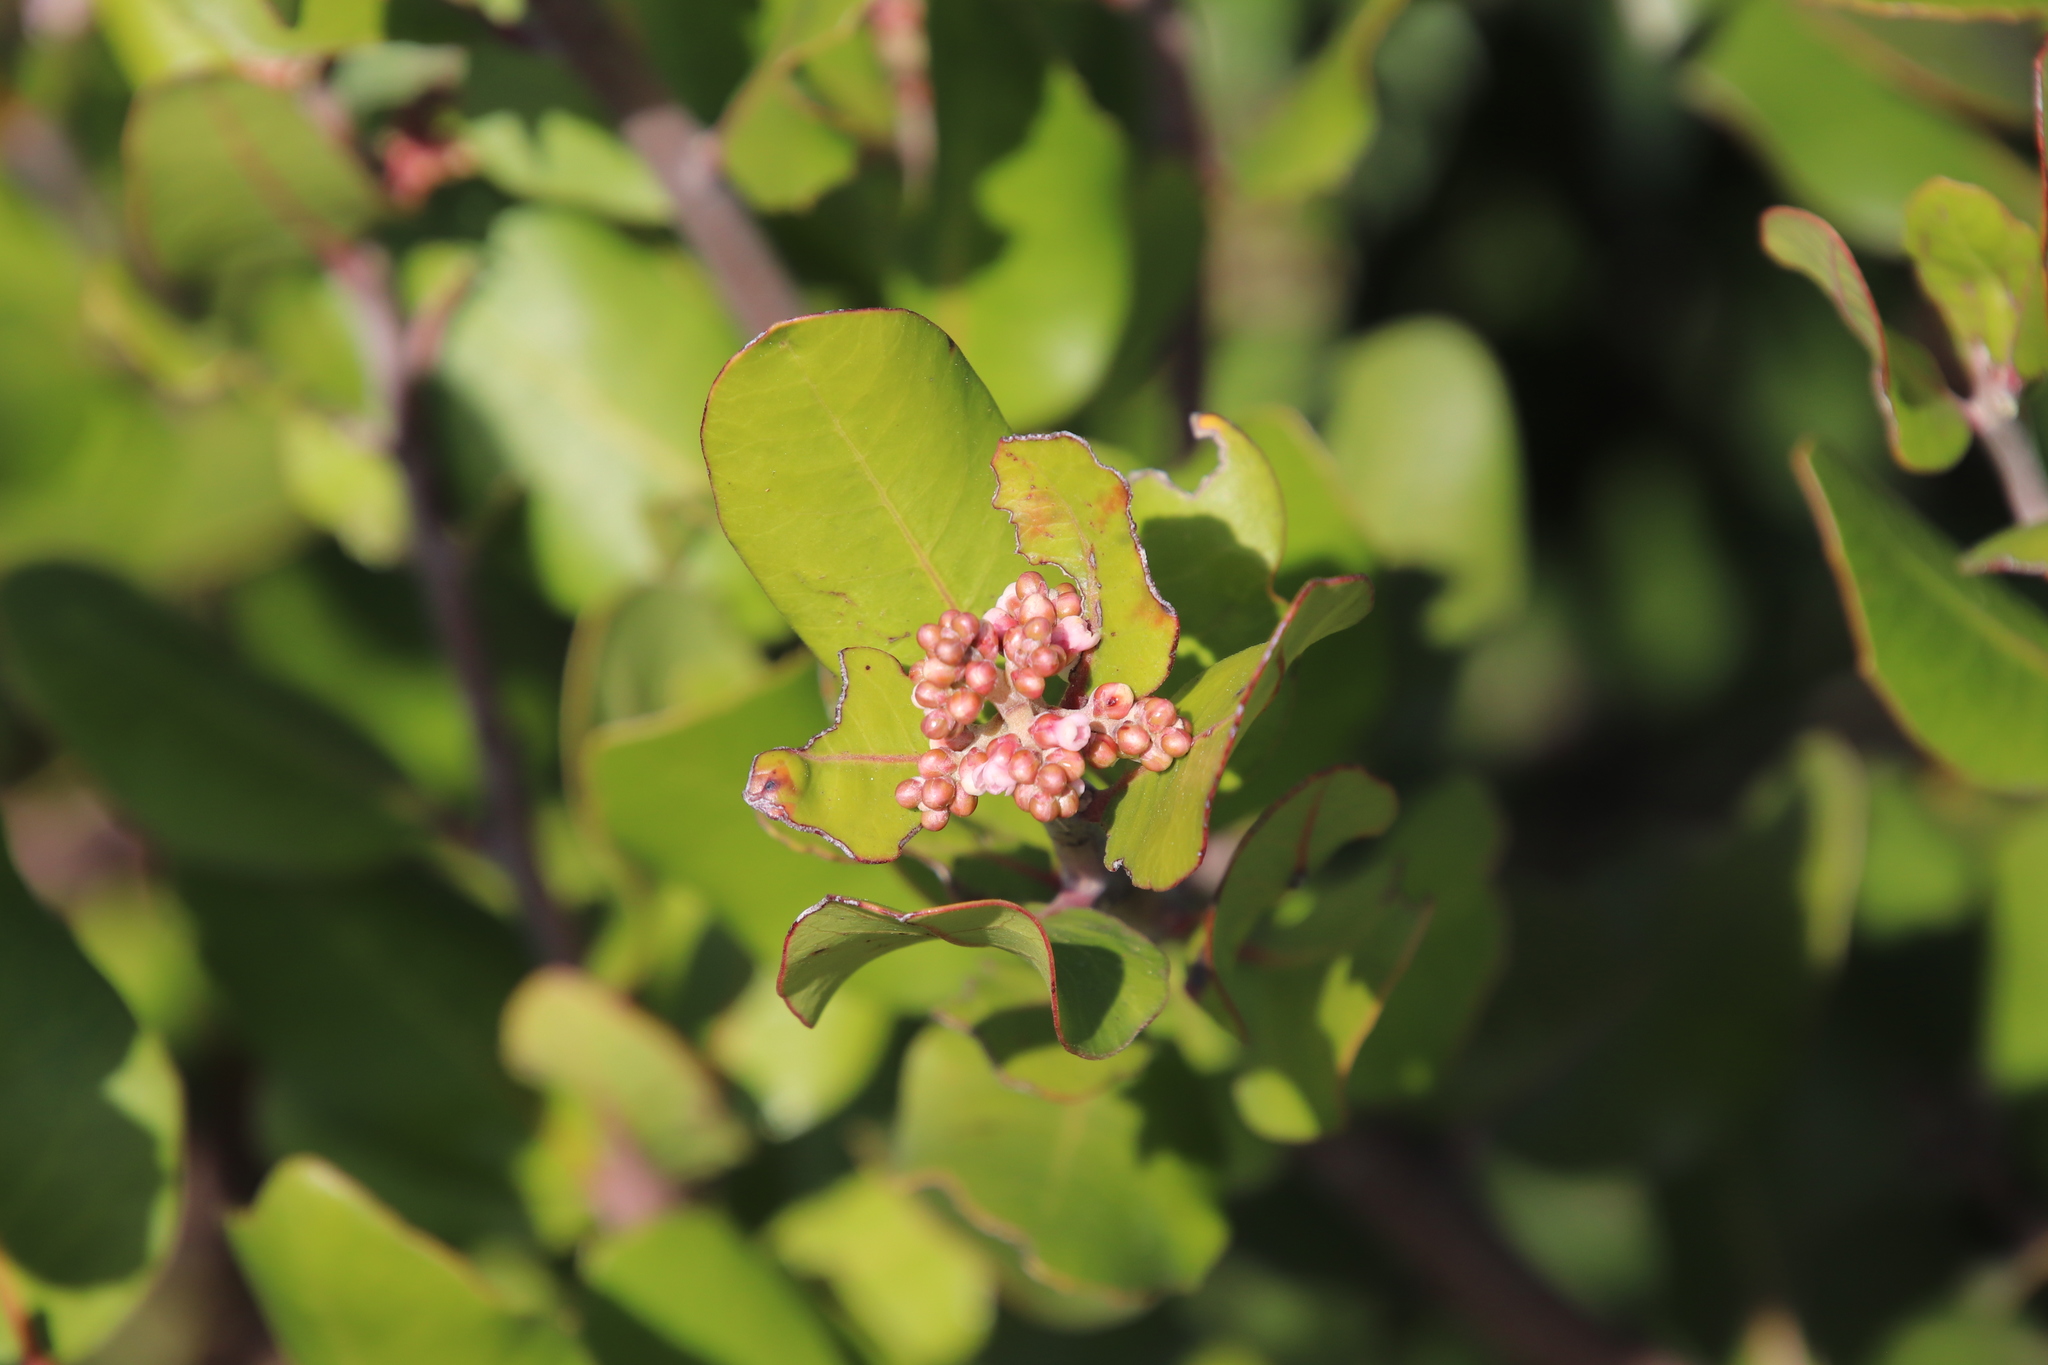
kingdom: Plantae
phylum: Tracheophyta
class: Magnoliopsida
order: Sapindales
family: Anacardiaceae
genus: Rhus
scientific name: Rhus integrifolia
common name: Lemonade sumac
